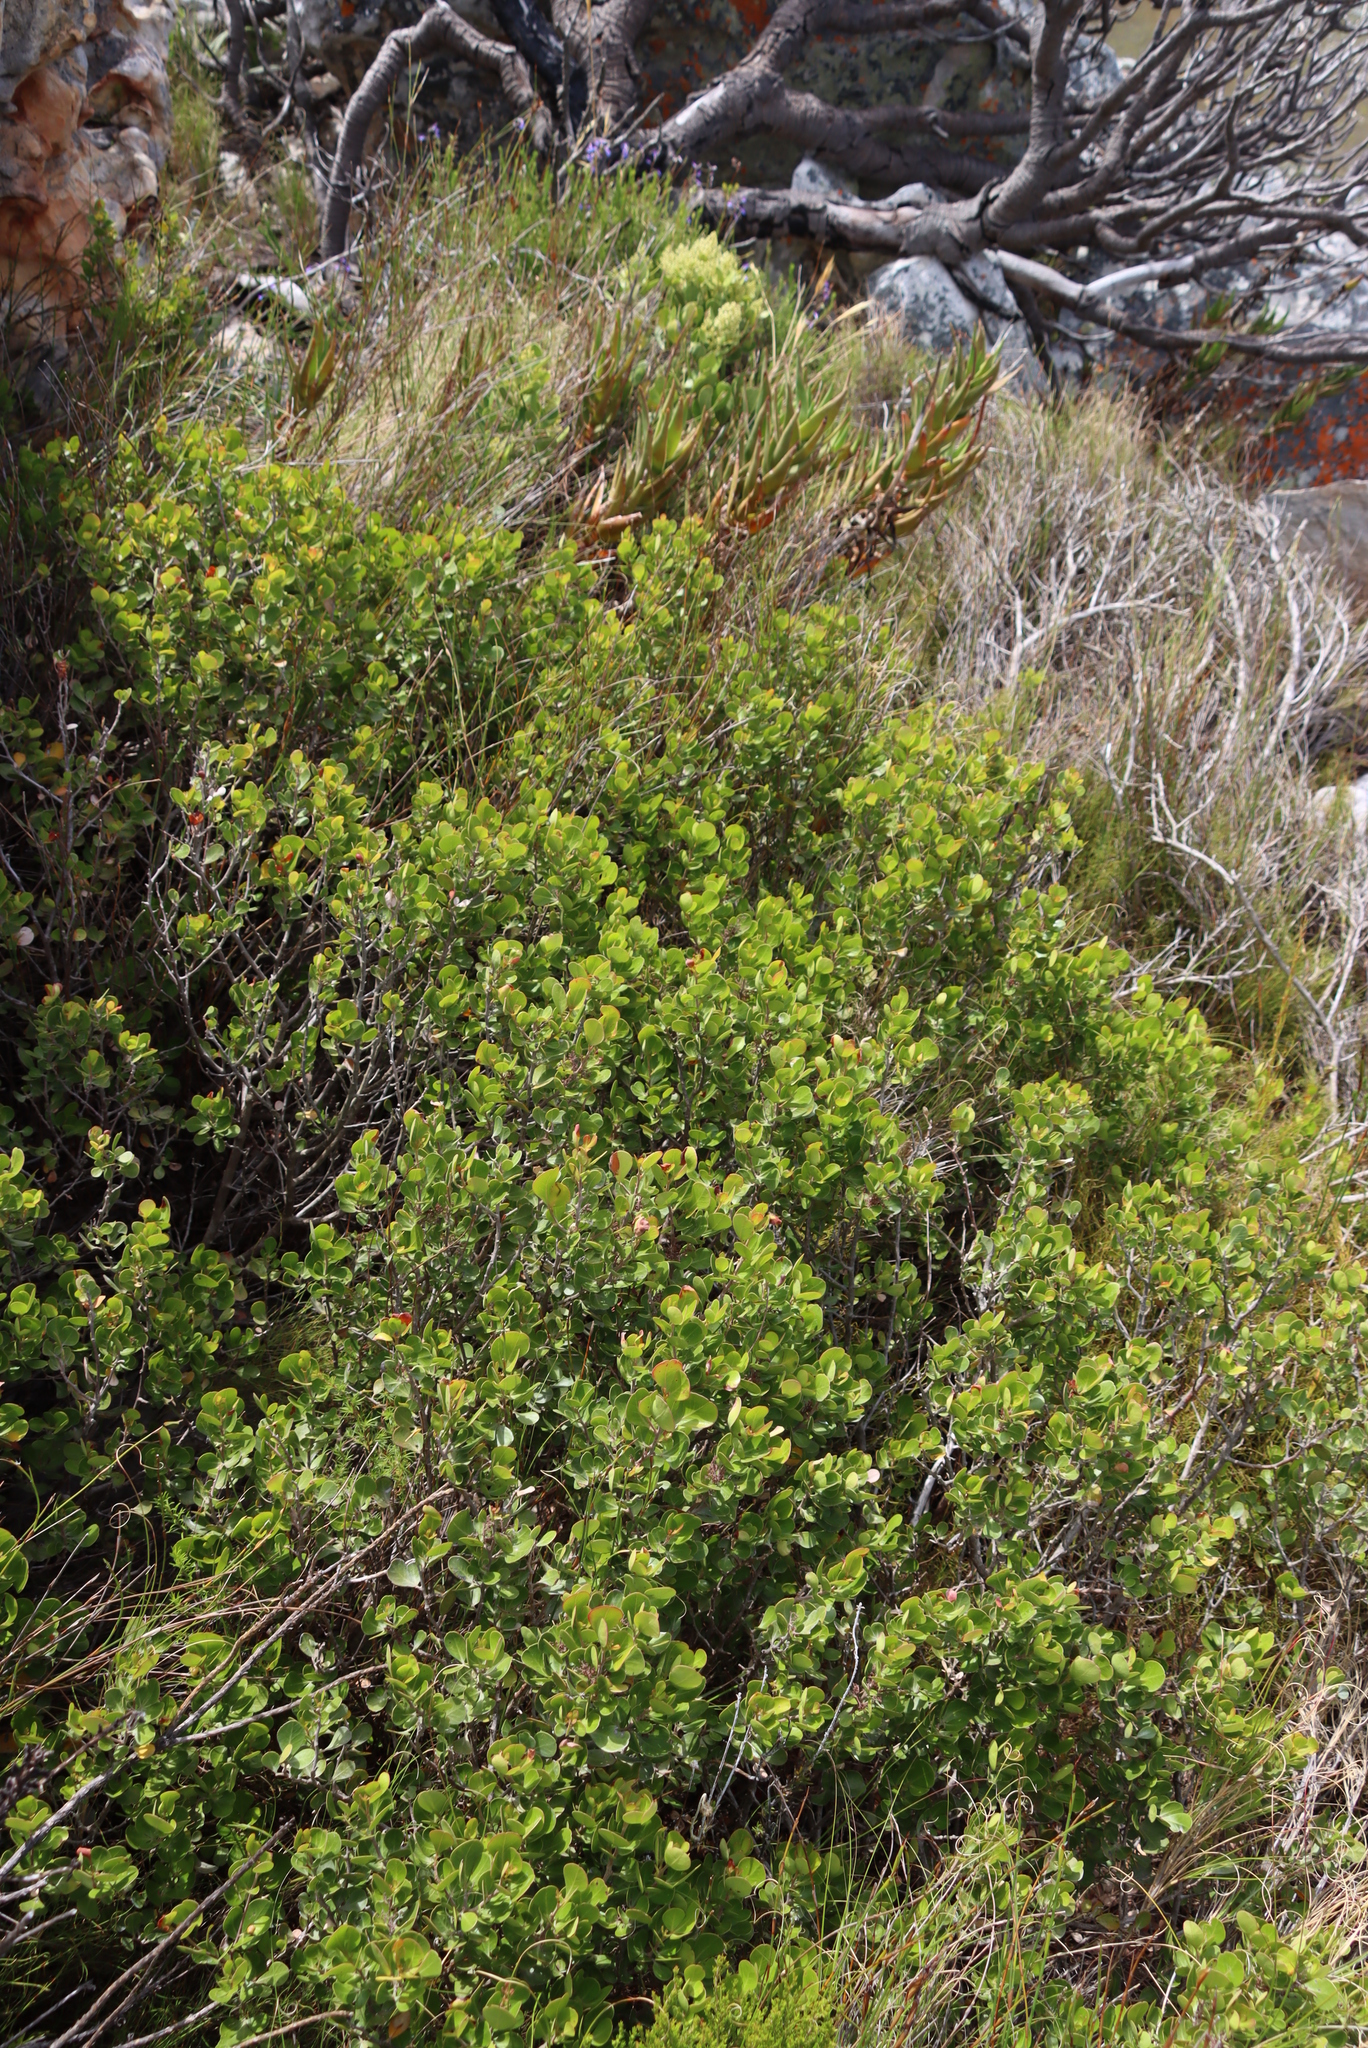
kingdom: Plantae
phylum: Tracheophyta
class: Magnoliopsida
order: Sapindales
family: Anacardiaceae
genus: Searsia
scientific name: Searsia lucida
